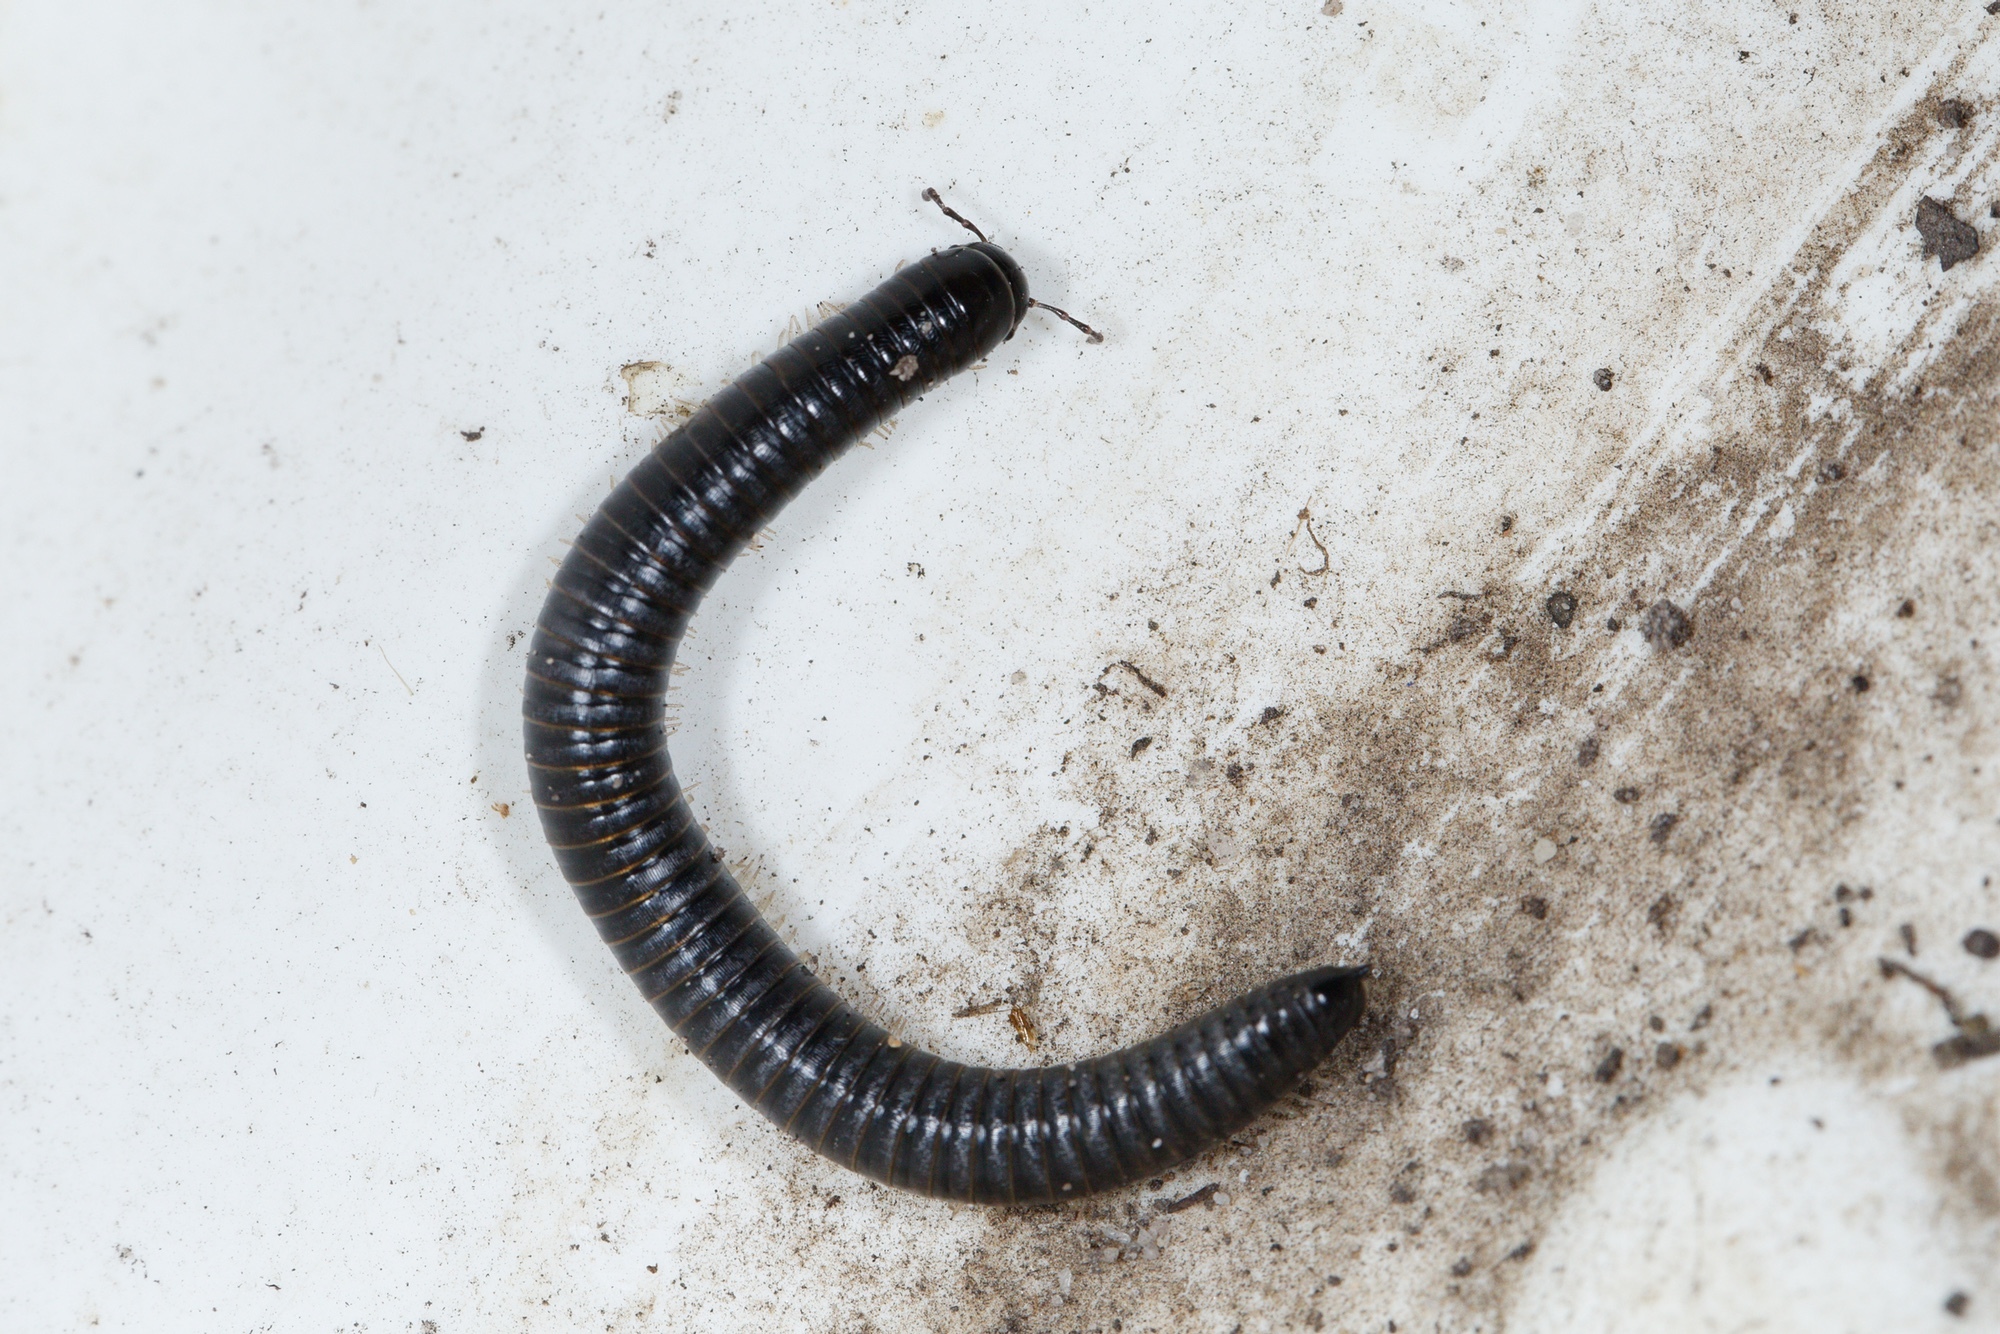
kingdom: Animalia
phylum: Arthropoda
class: Diplopoda
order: Julida
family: Julidae
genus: Ommatoiulus
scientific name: Ommatoiulus moreleti
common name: Portuguese millipede
